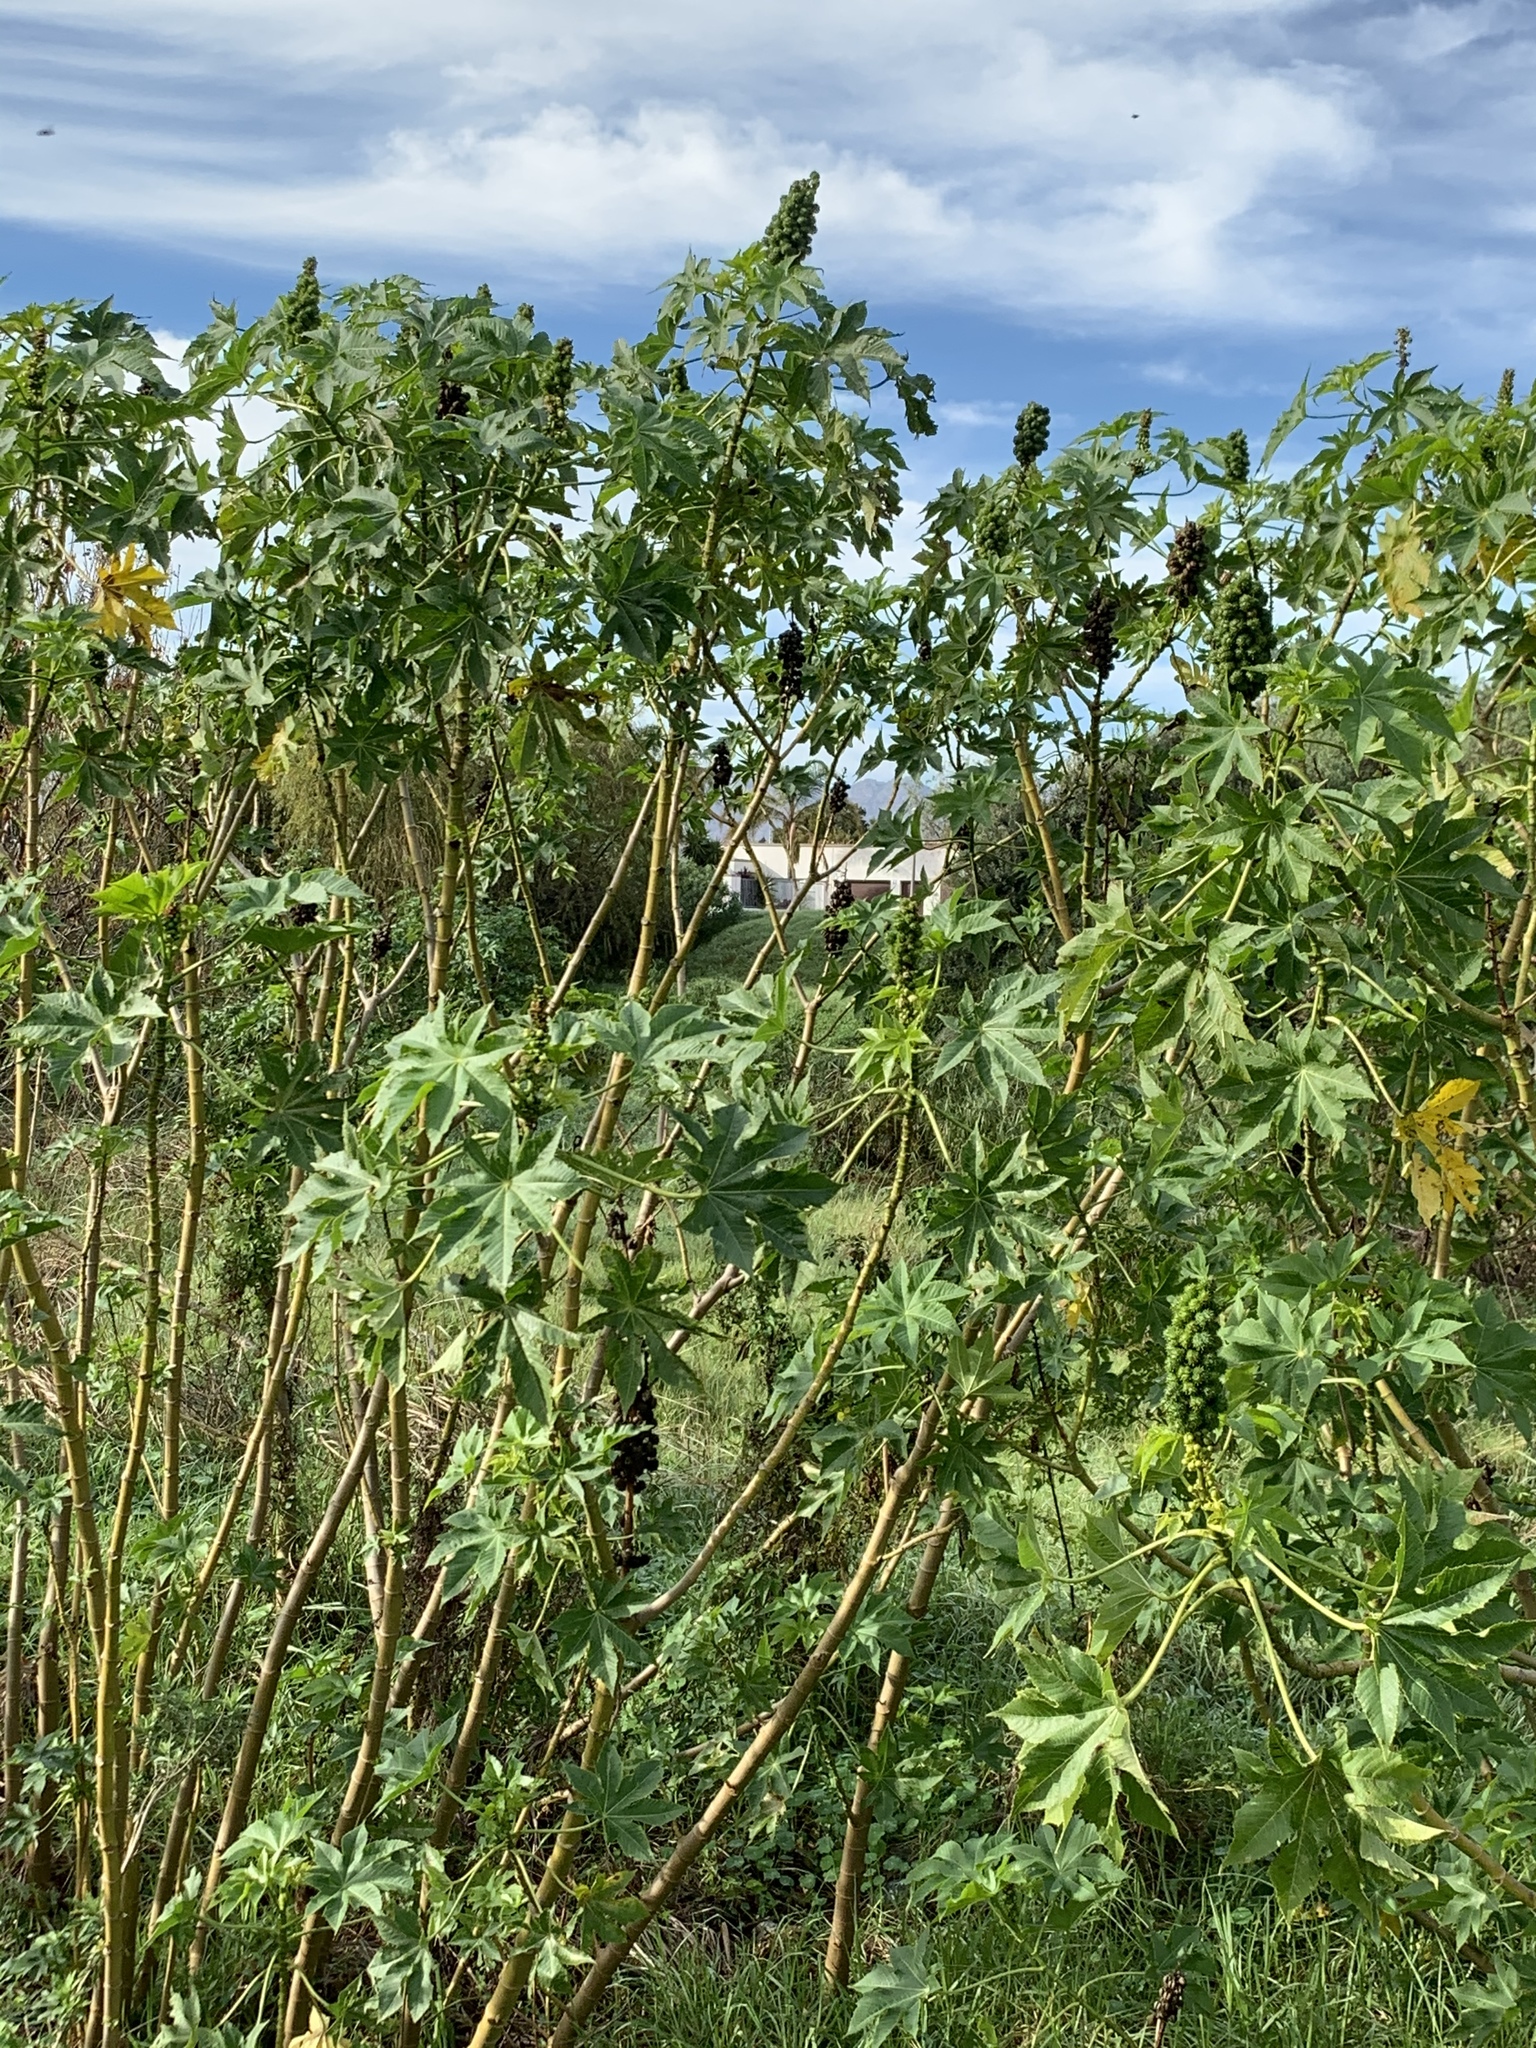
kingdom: Plantae
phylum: Tracheophyta
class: Magnoliopsida
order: Malpighiales
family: Euphorbiaceae
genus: Ricinus
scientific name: Ricinus communis
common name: Castor-oil-plant
